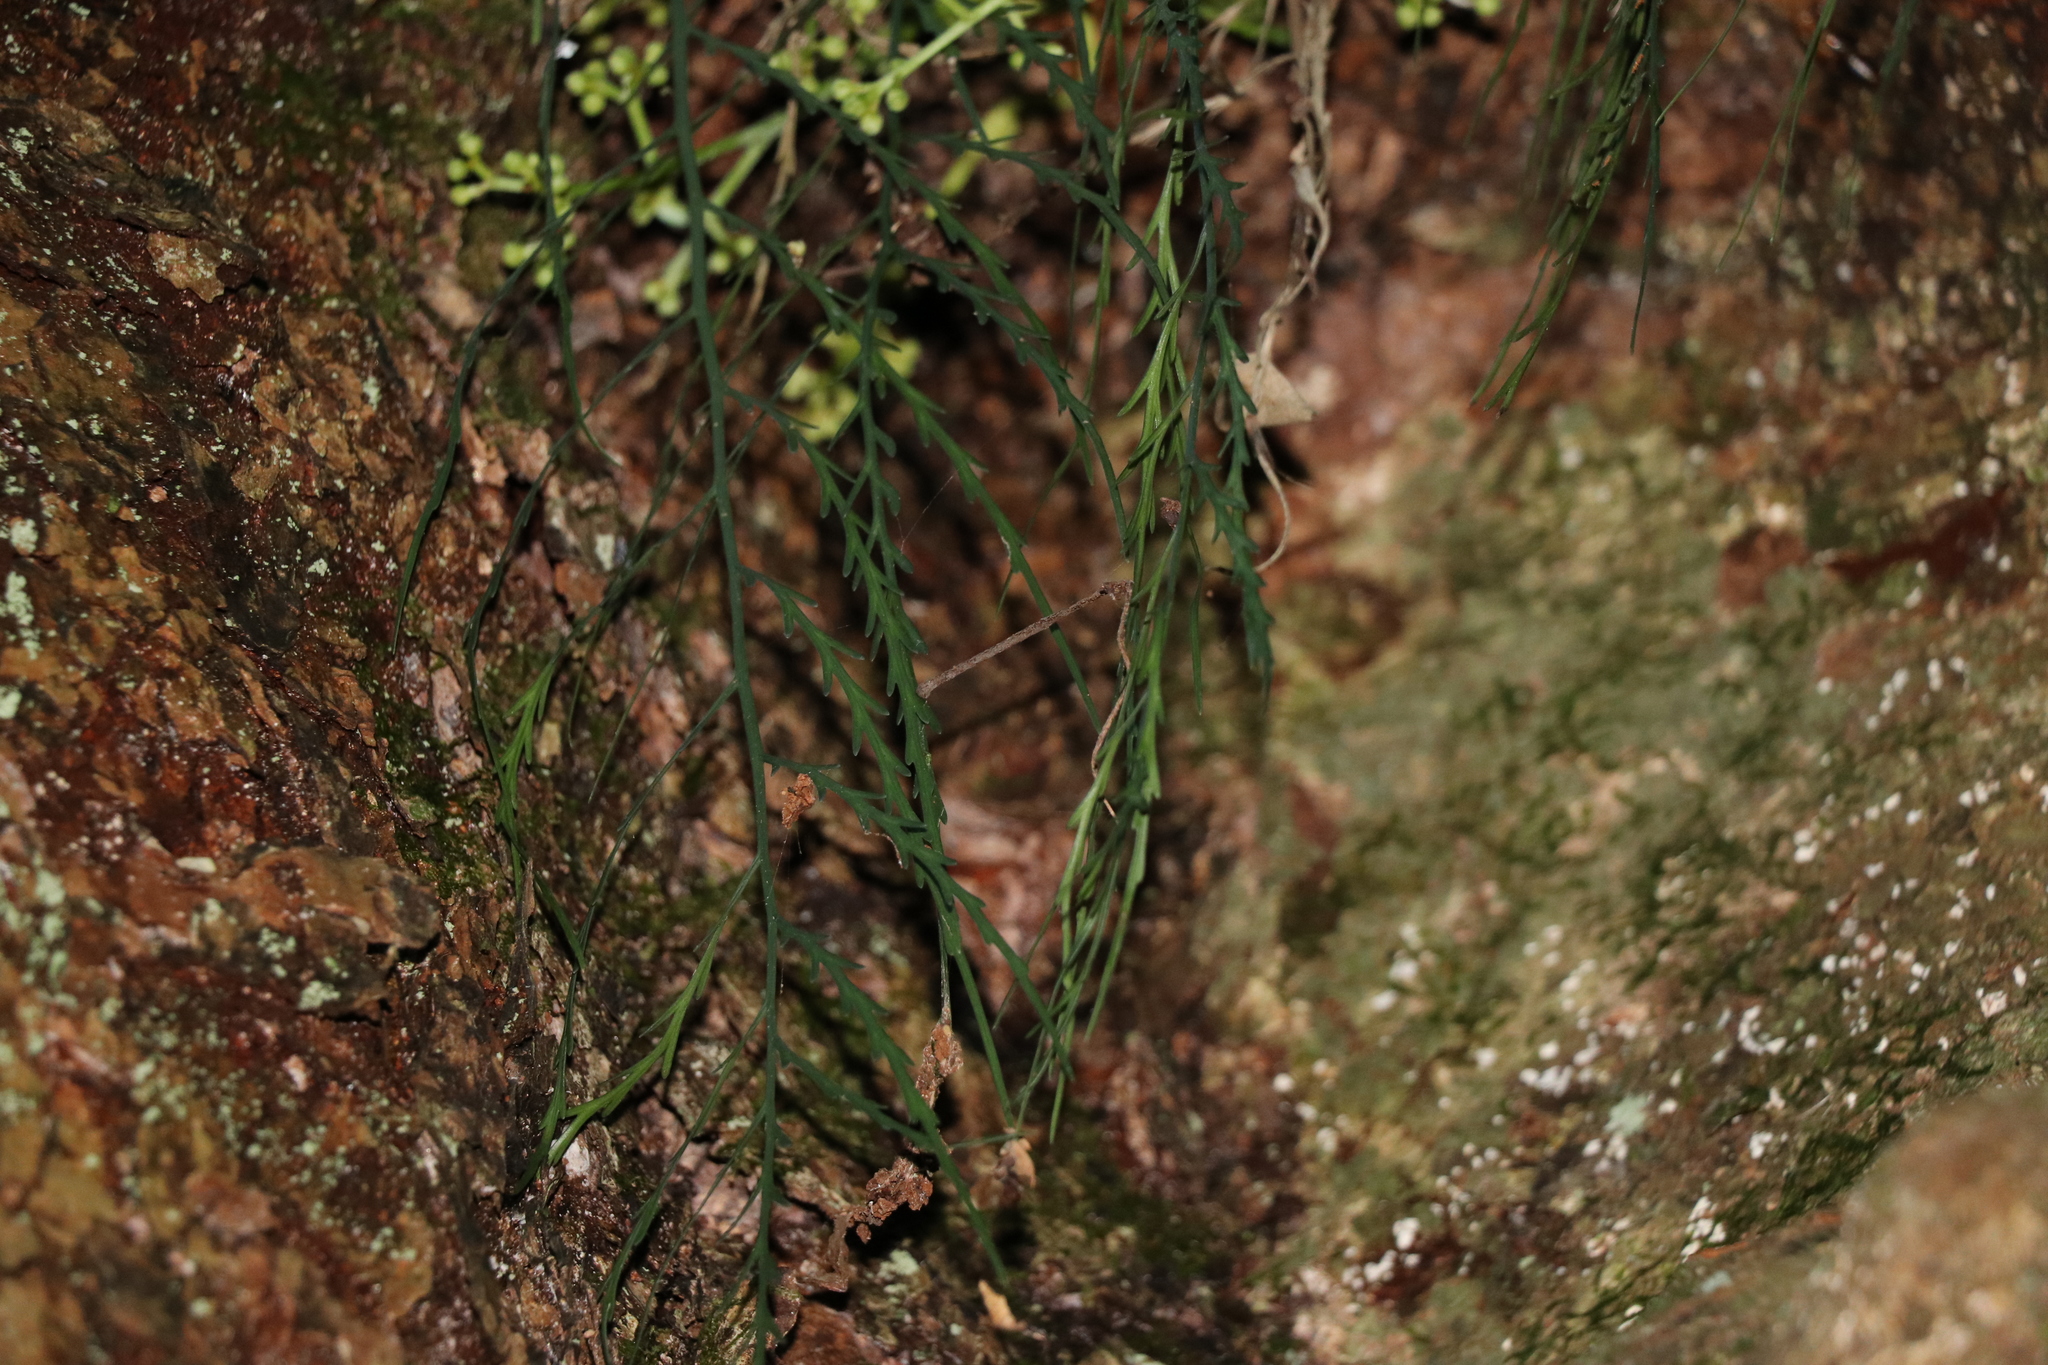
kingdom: Plantae
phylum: Tracheophyta
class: Polypodiopsida
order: Polypodiales
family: Aspleniaceae
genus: Asplenium
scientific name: Asplenium flaccidum
